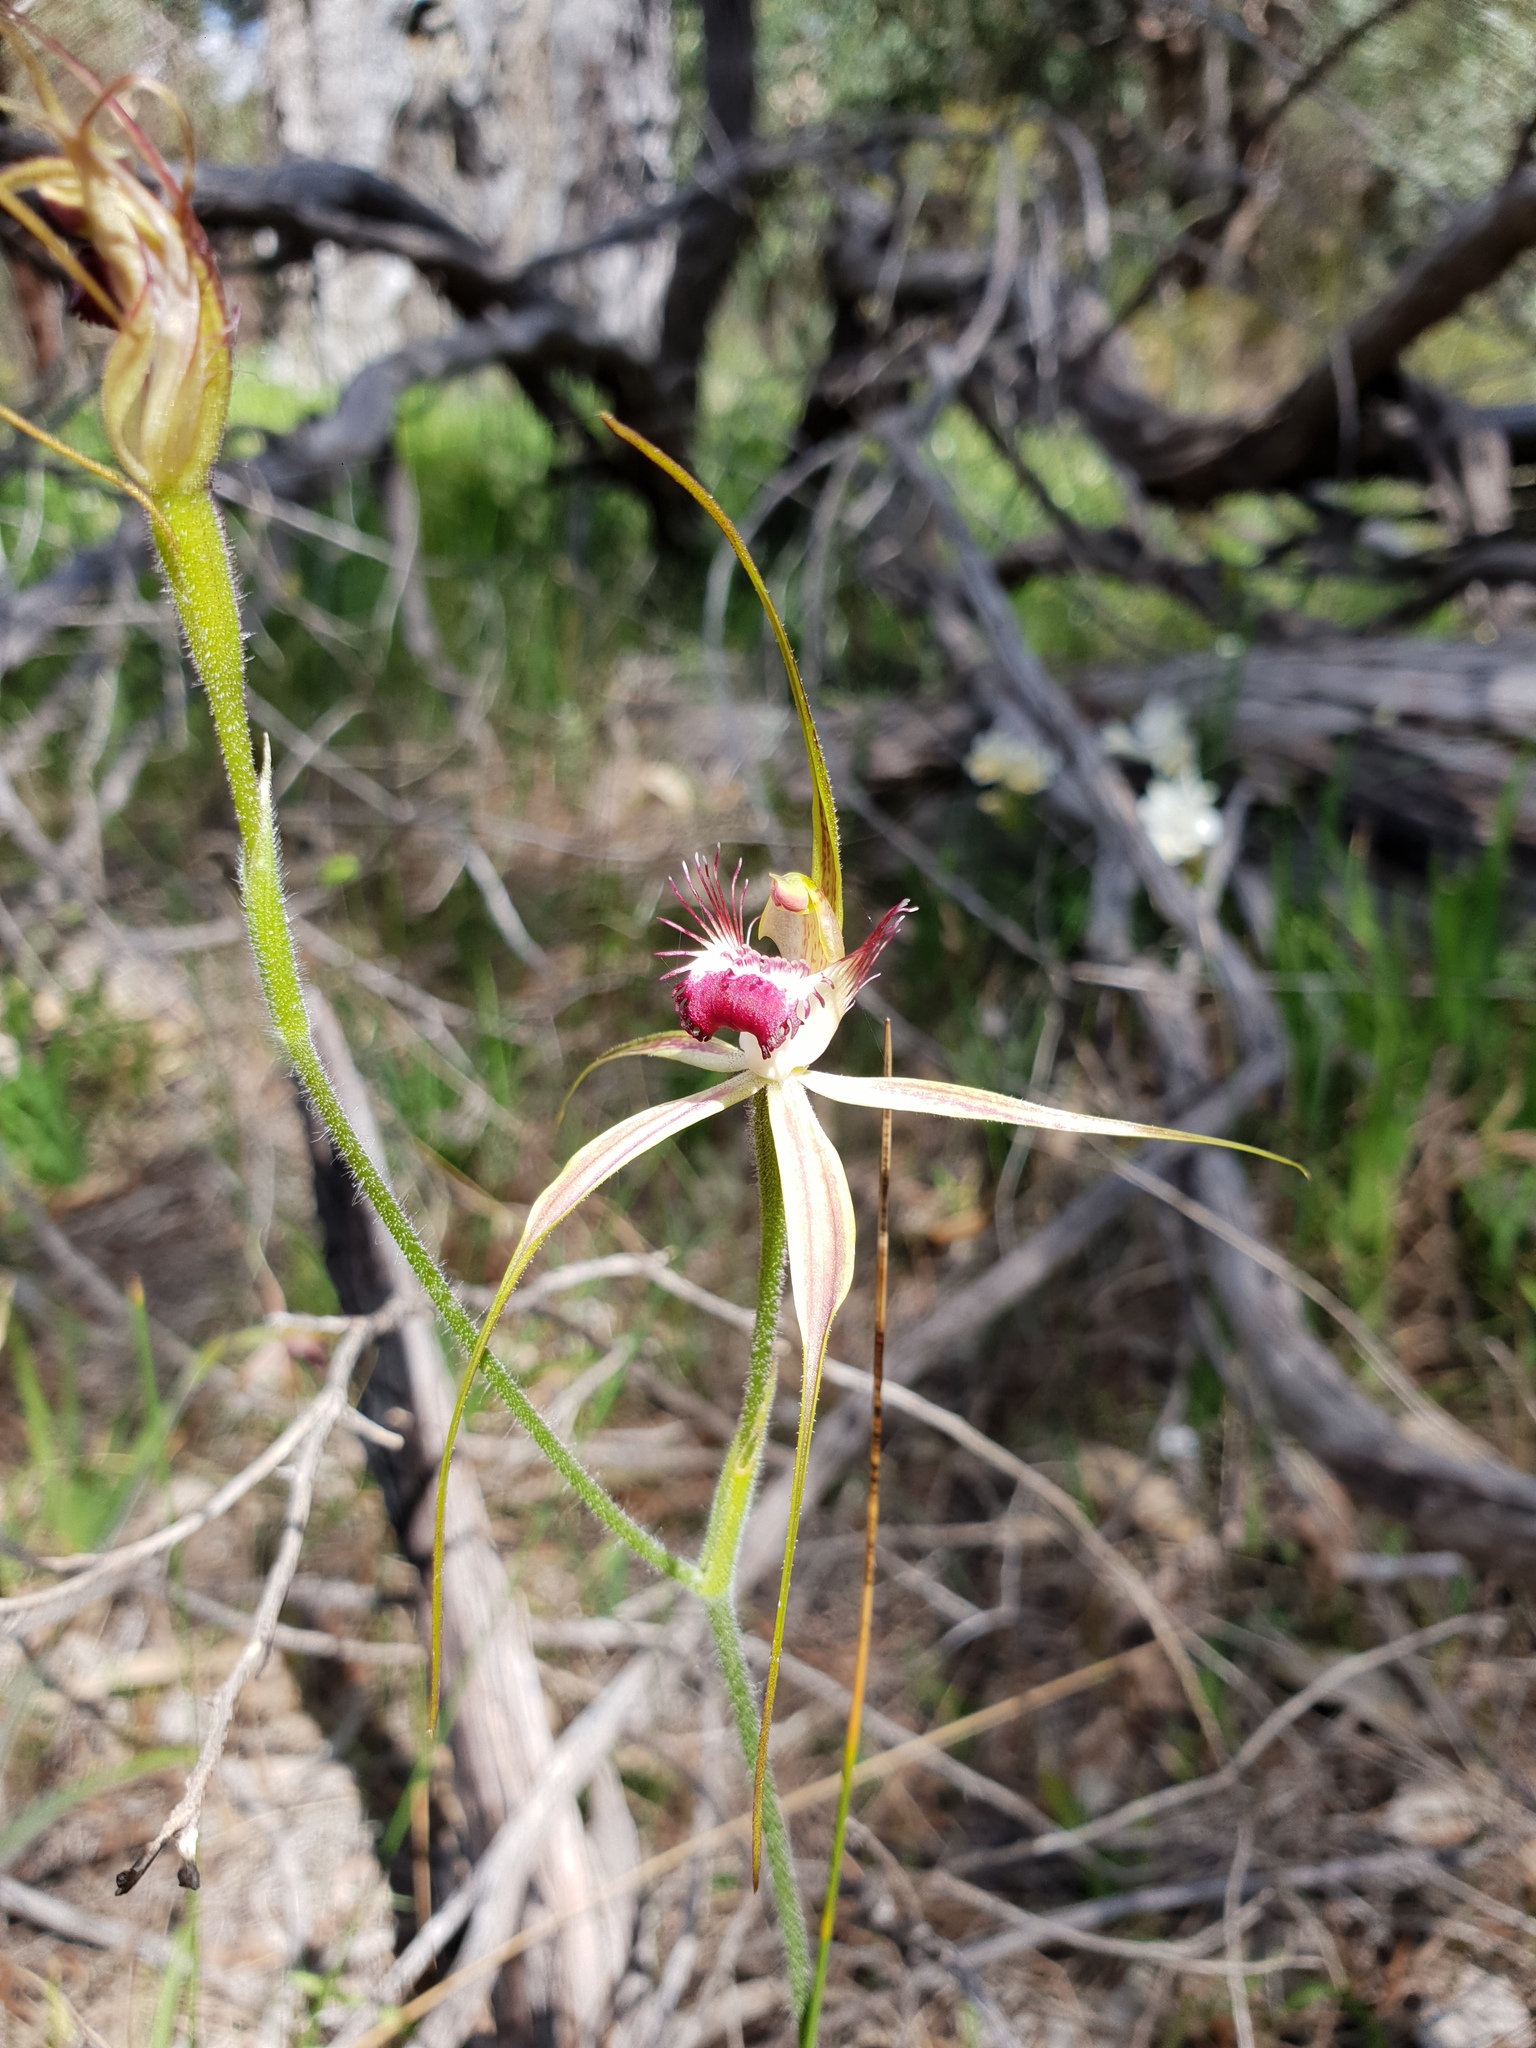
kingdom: Plantae
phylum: Tracheophyta
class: Liliopsida
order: Asparagales
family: Orchidaceae
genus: Caladenia
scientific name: Caladenia arenicola
